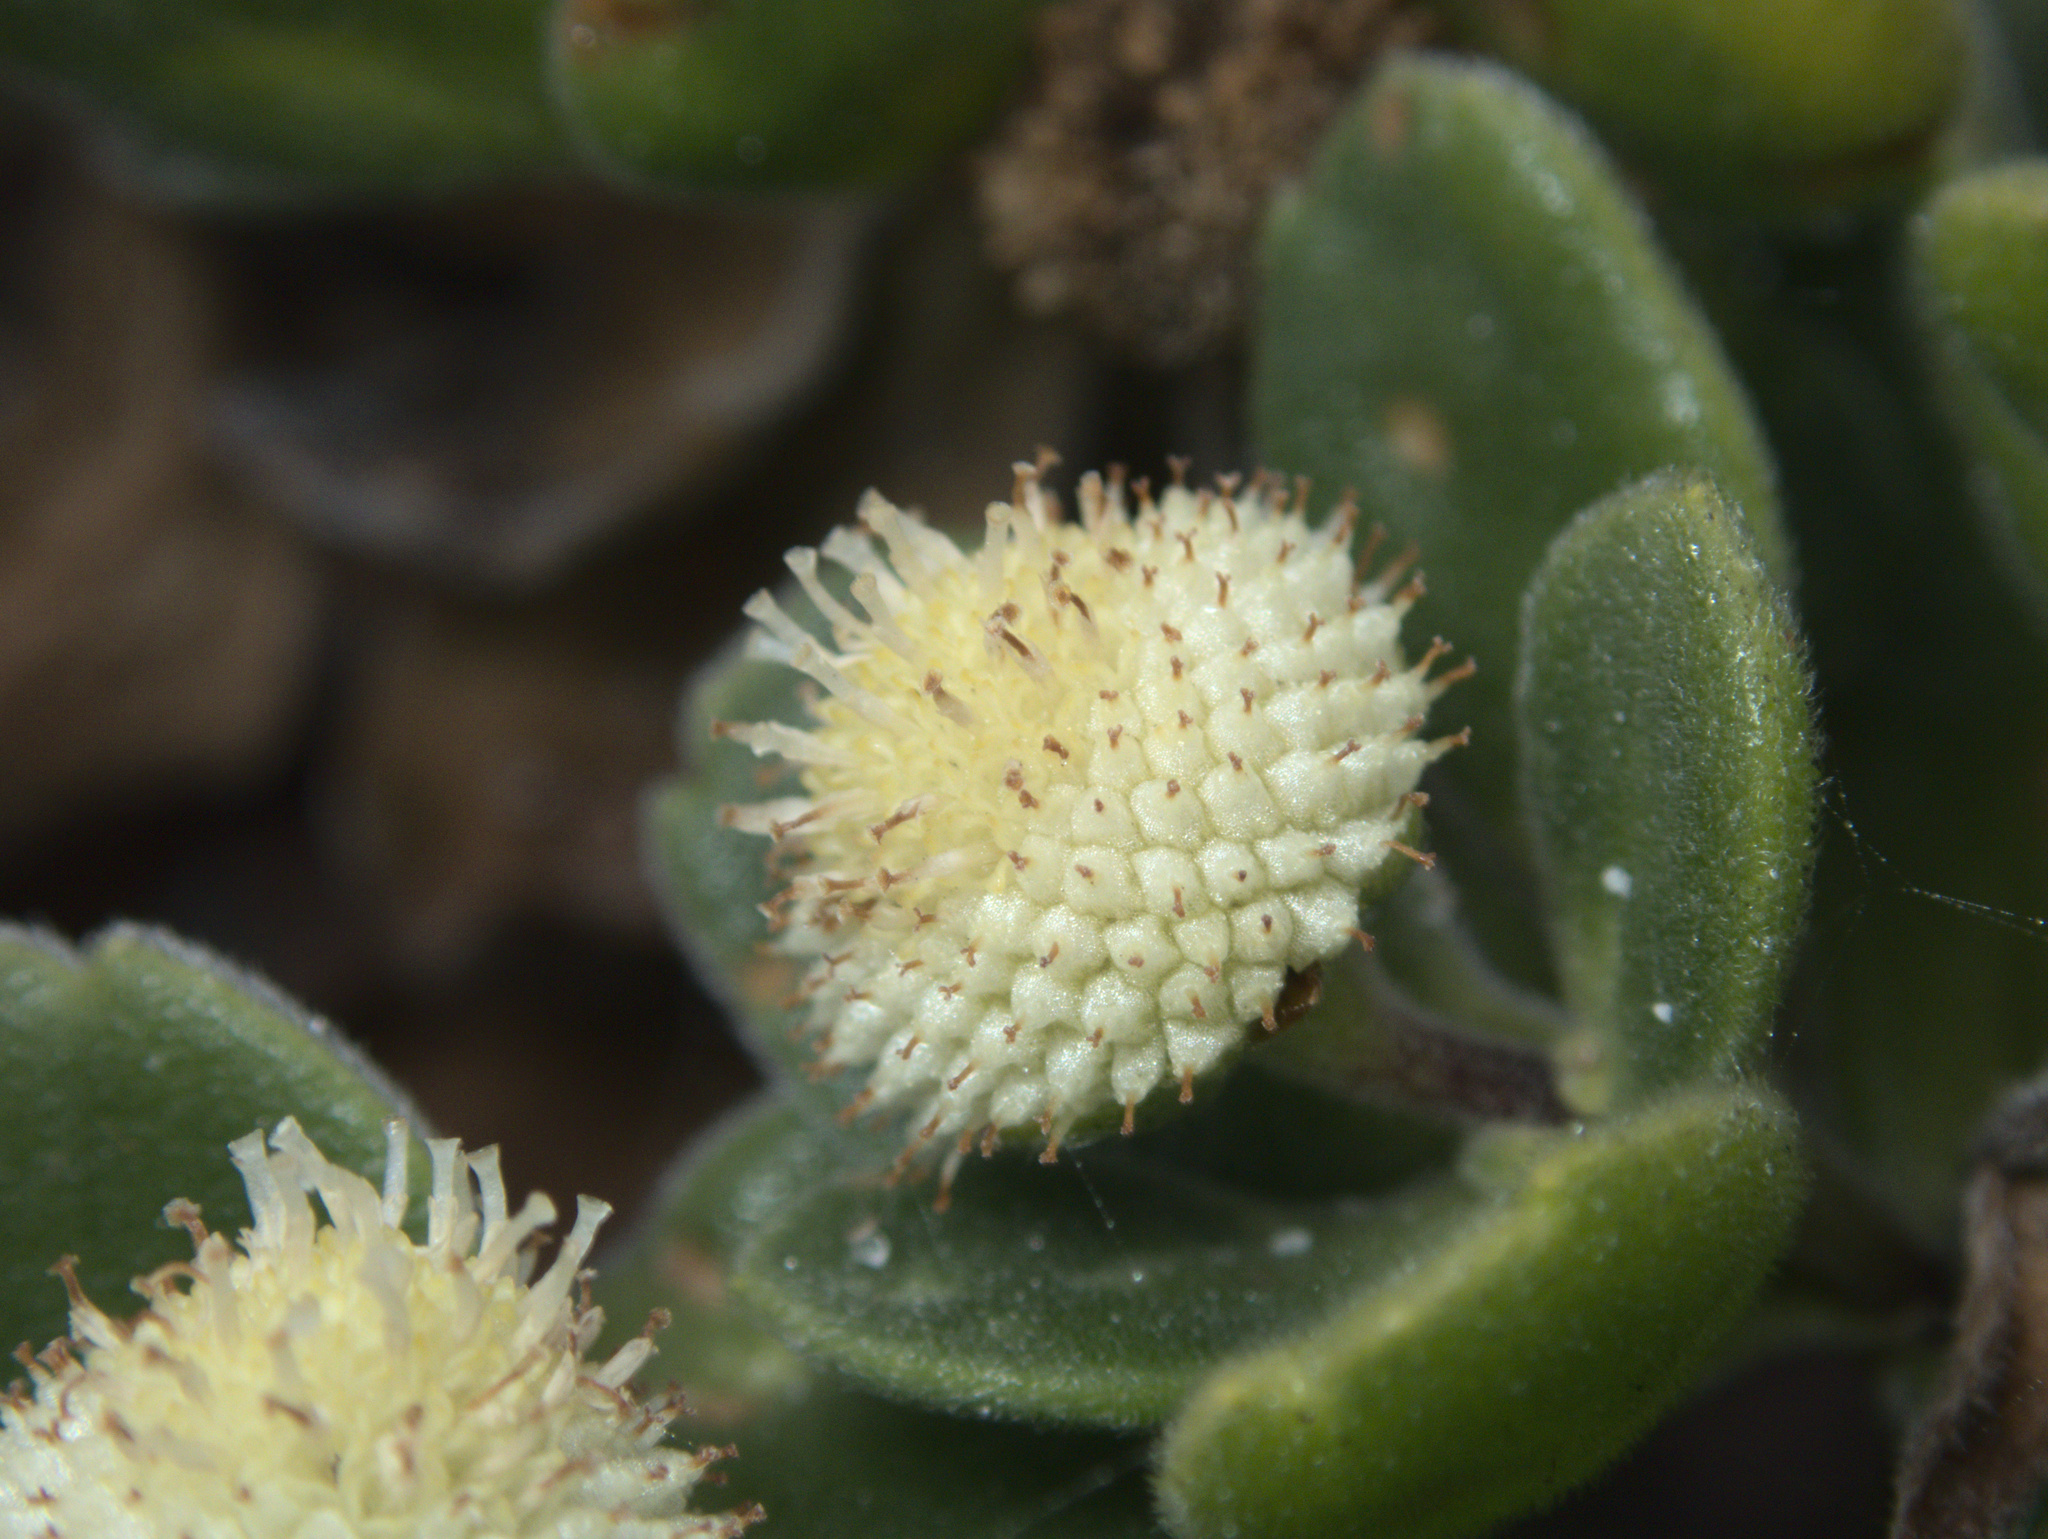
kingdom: Plantae
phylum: Tracheophyta
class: Magnoliopsida
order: Asterales
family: Asteraceae
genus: Leptinella
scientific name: Leptinella featherstonii
